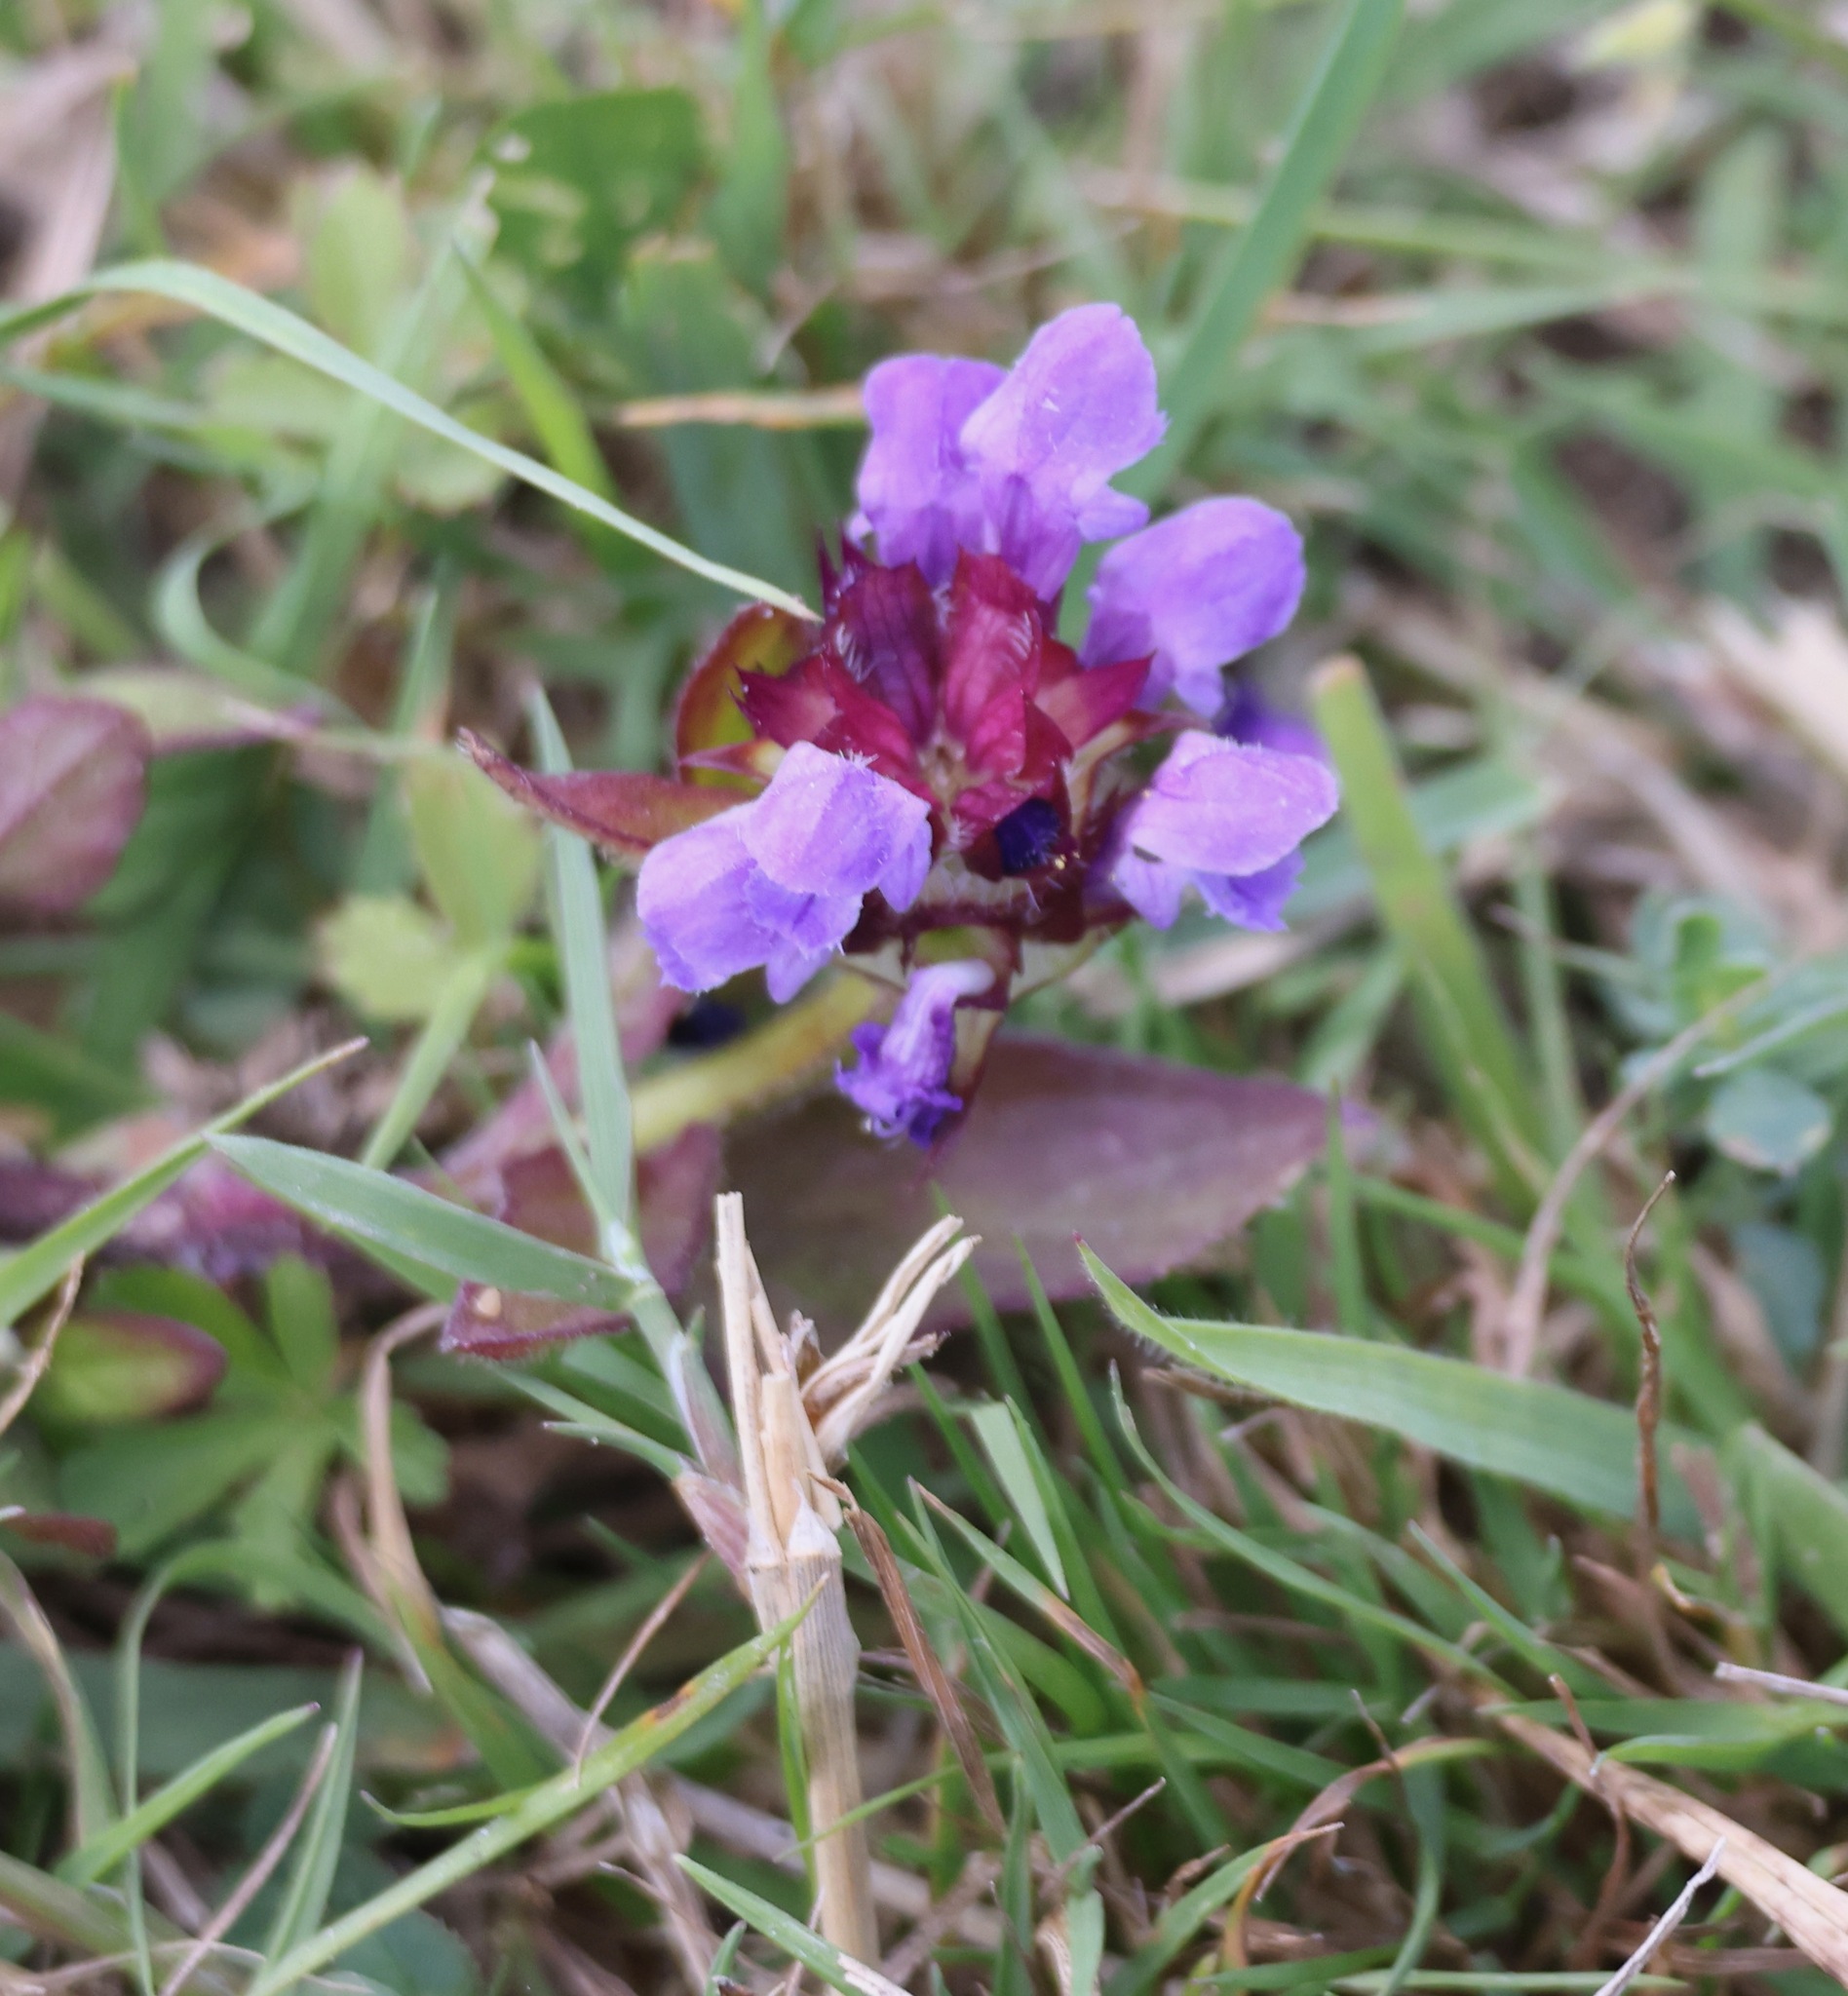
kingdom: Plantae
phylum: Tracheophyta
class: Magnoliopsida
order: Lamiales
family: Lamiaceae
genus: Prunella
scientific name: Prunella vulgaris
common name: Heal-all
